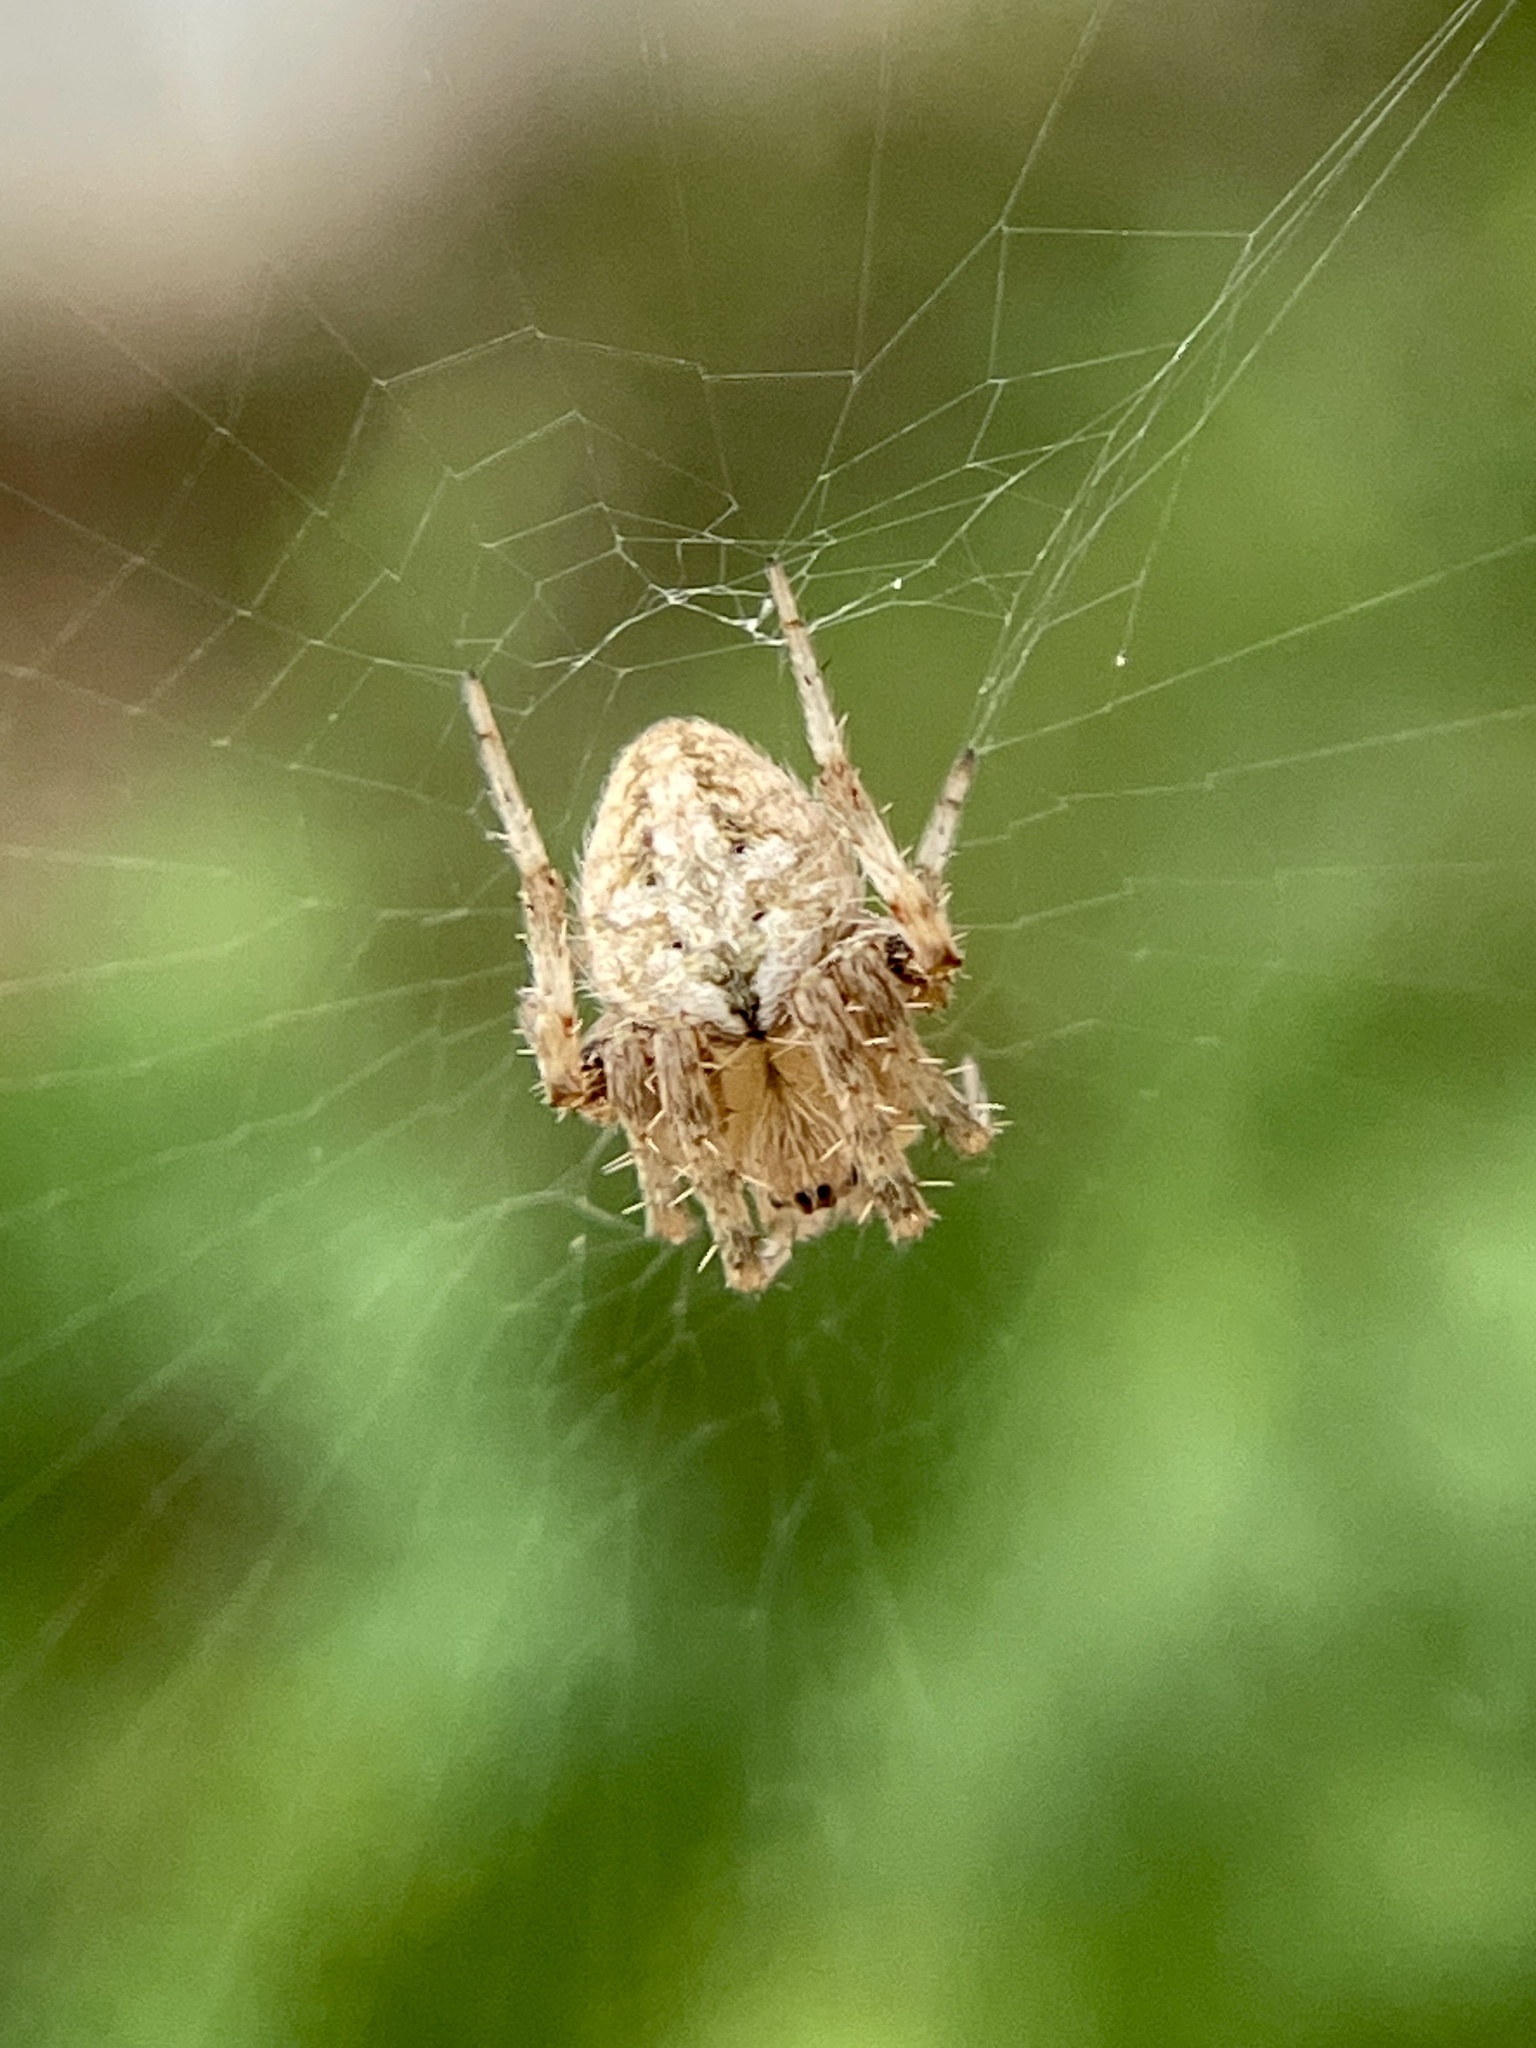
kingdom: Animalia
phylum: Arthropoda
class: Arachnida
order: Araneae
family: Araneidae
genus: Neoscona
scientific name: Neoscona crucifera
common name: Spotted orbweaver
